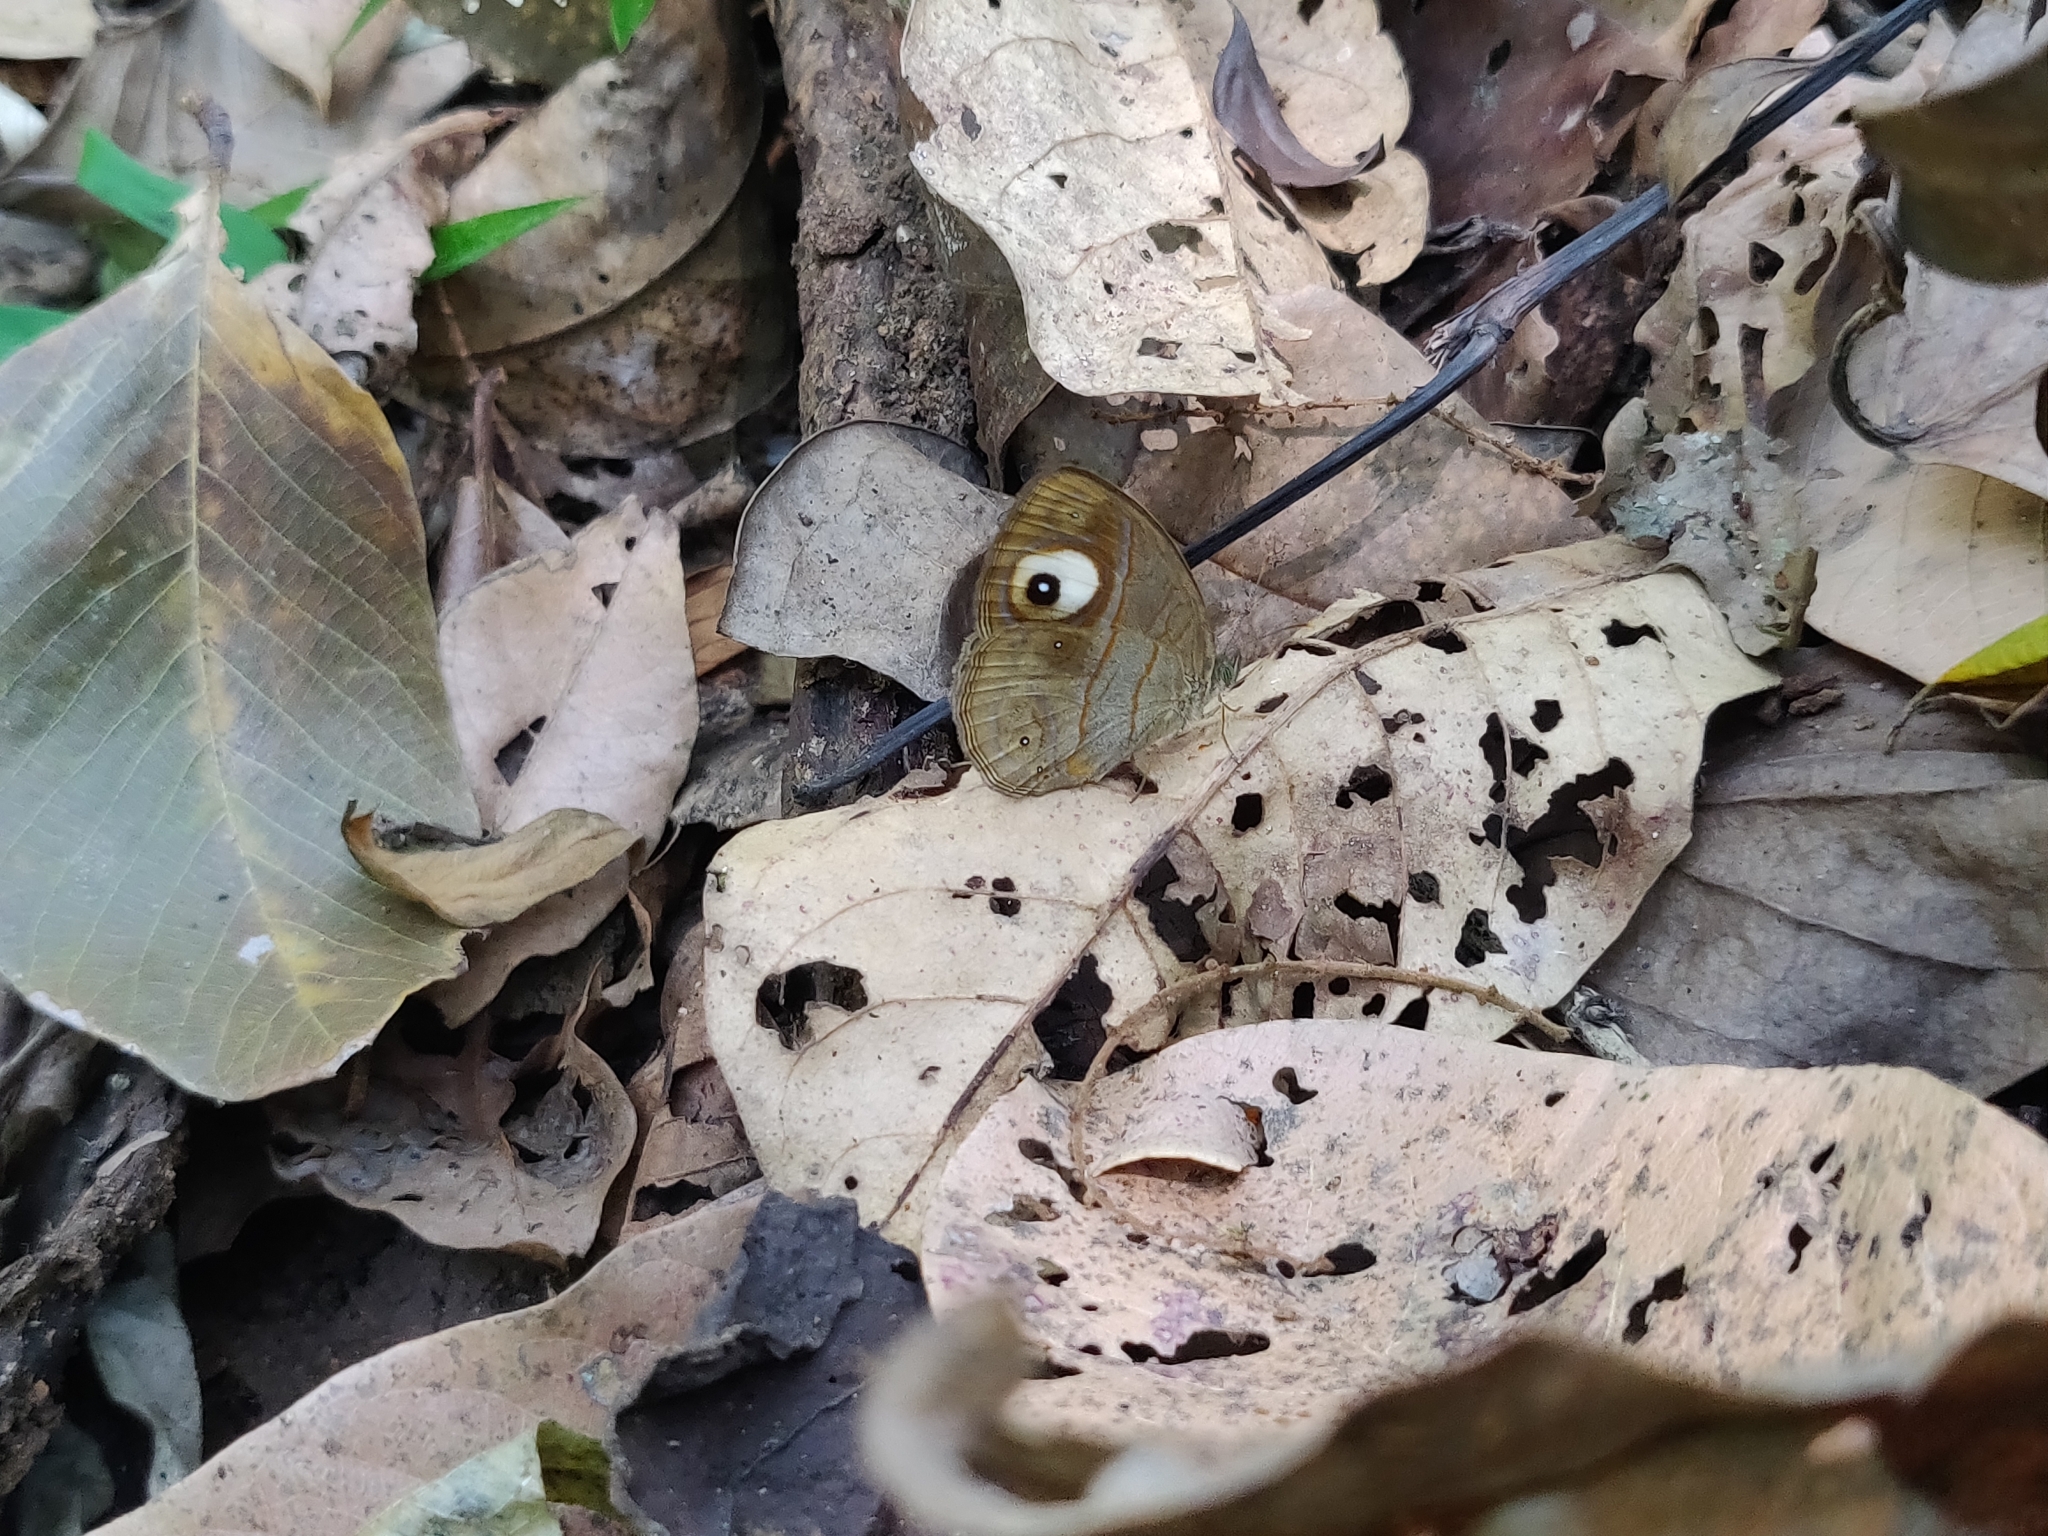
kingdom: Animalia
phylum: Arthropoda
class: Insecta
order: Lepidoptera
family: Nymphalidae
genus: Mycalesis
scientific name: Mycalesis patnia
